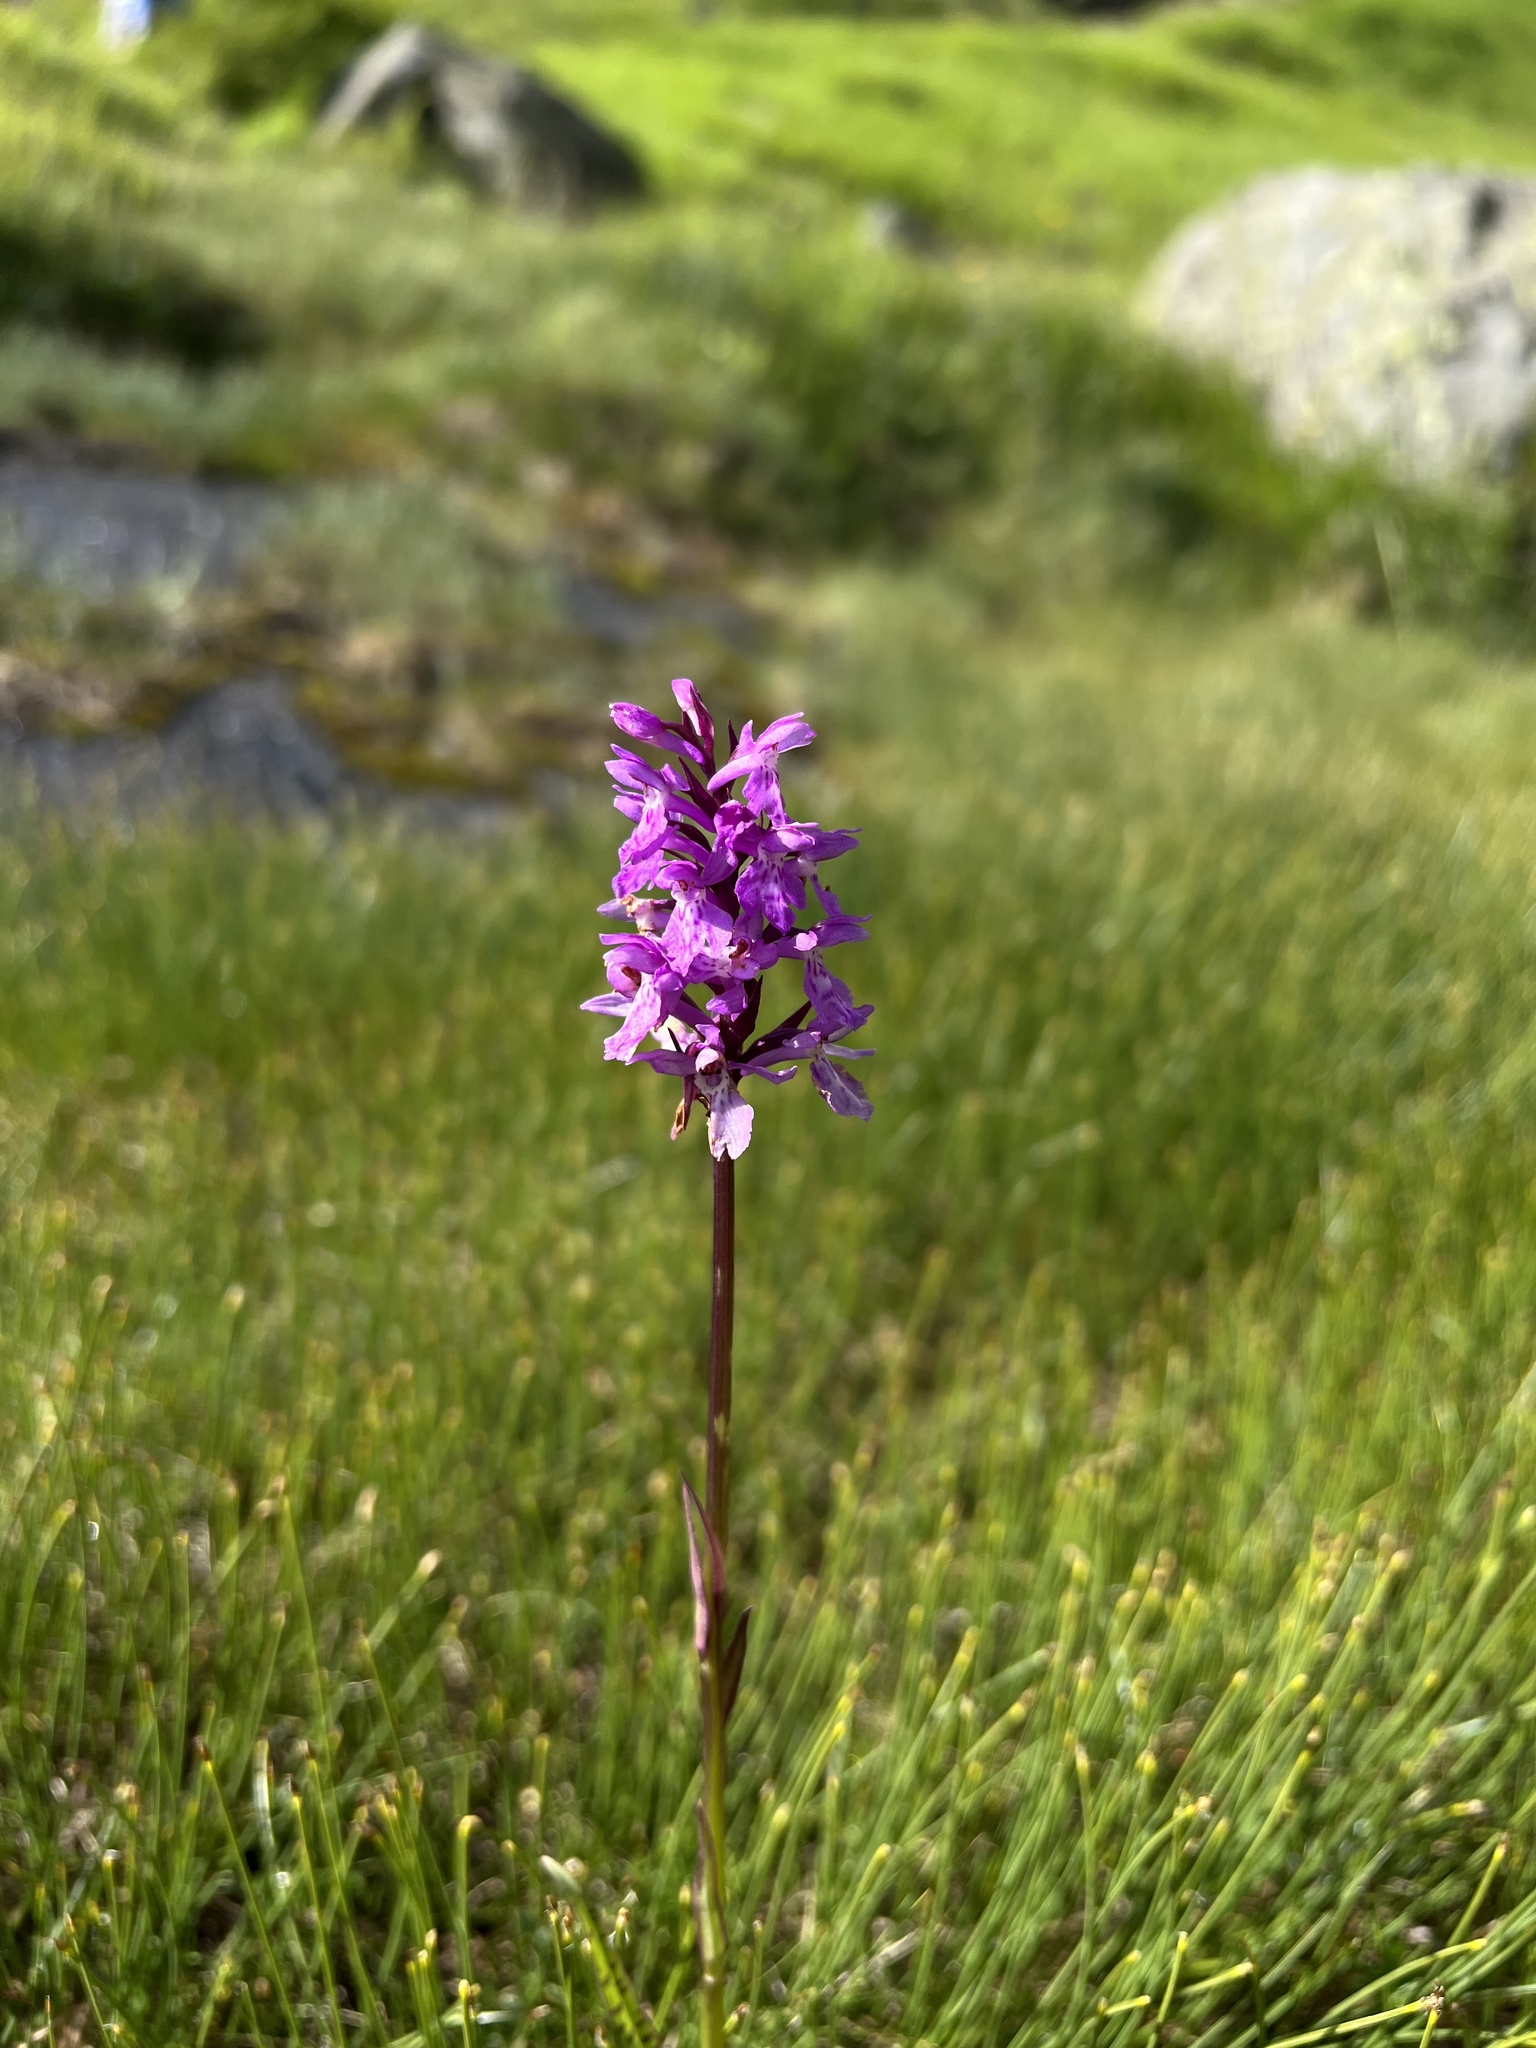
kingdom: Plantae
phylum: Tracheophyta
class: Liliopsida
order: Asparagales
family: Orchidaceae
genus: Dactylorhiza
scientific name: Dactylorhiza maculata
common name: Heath spotted-orchid
